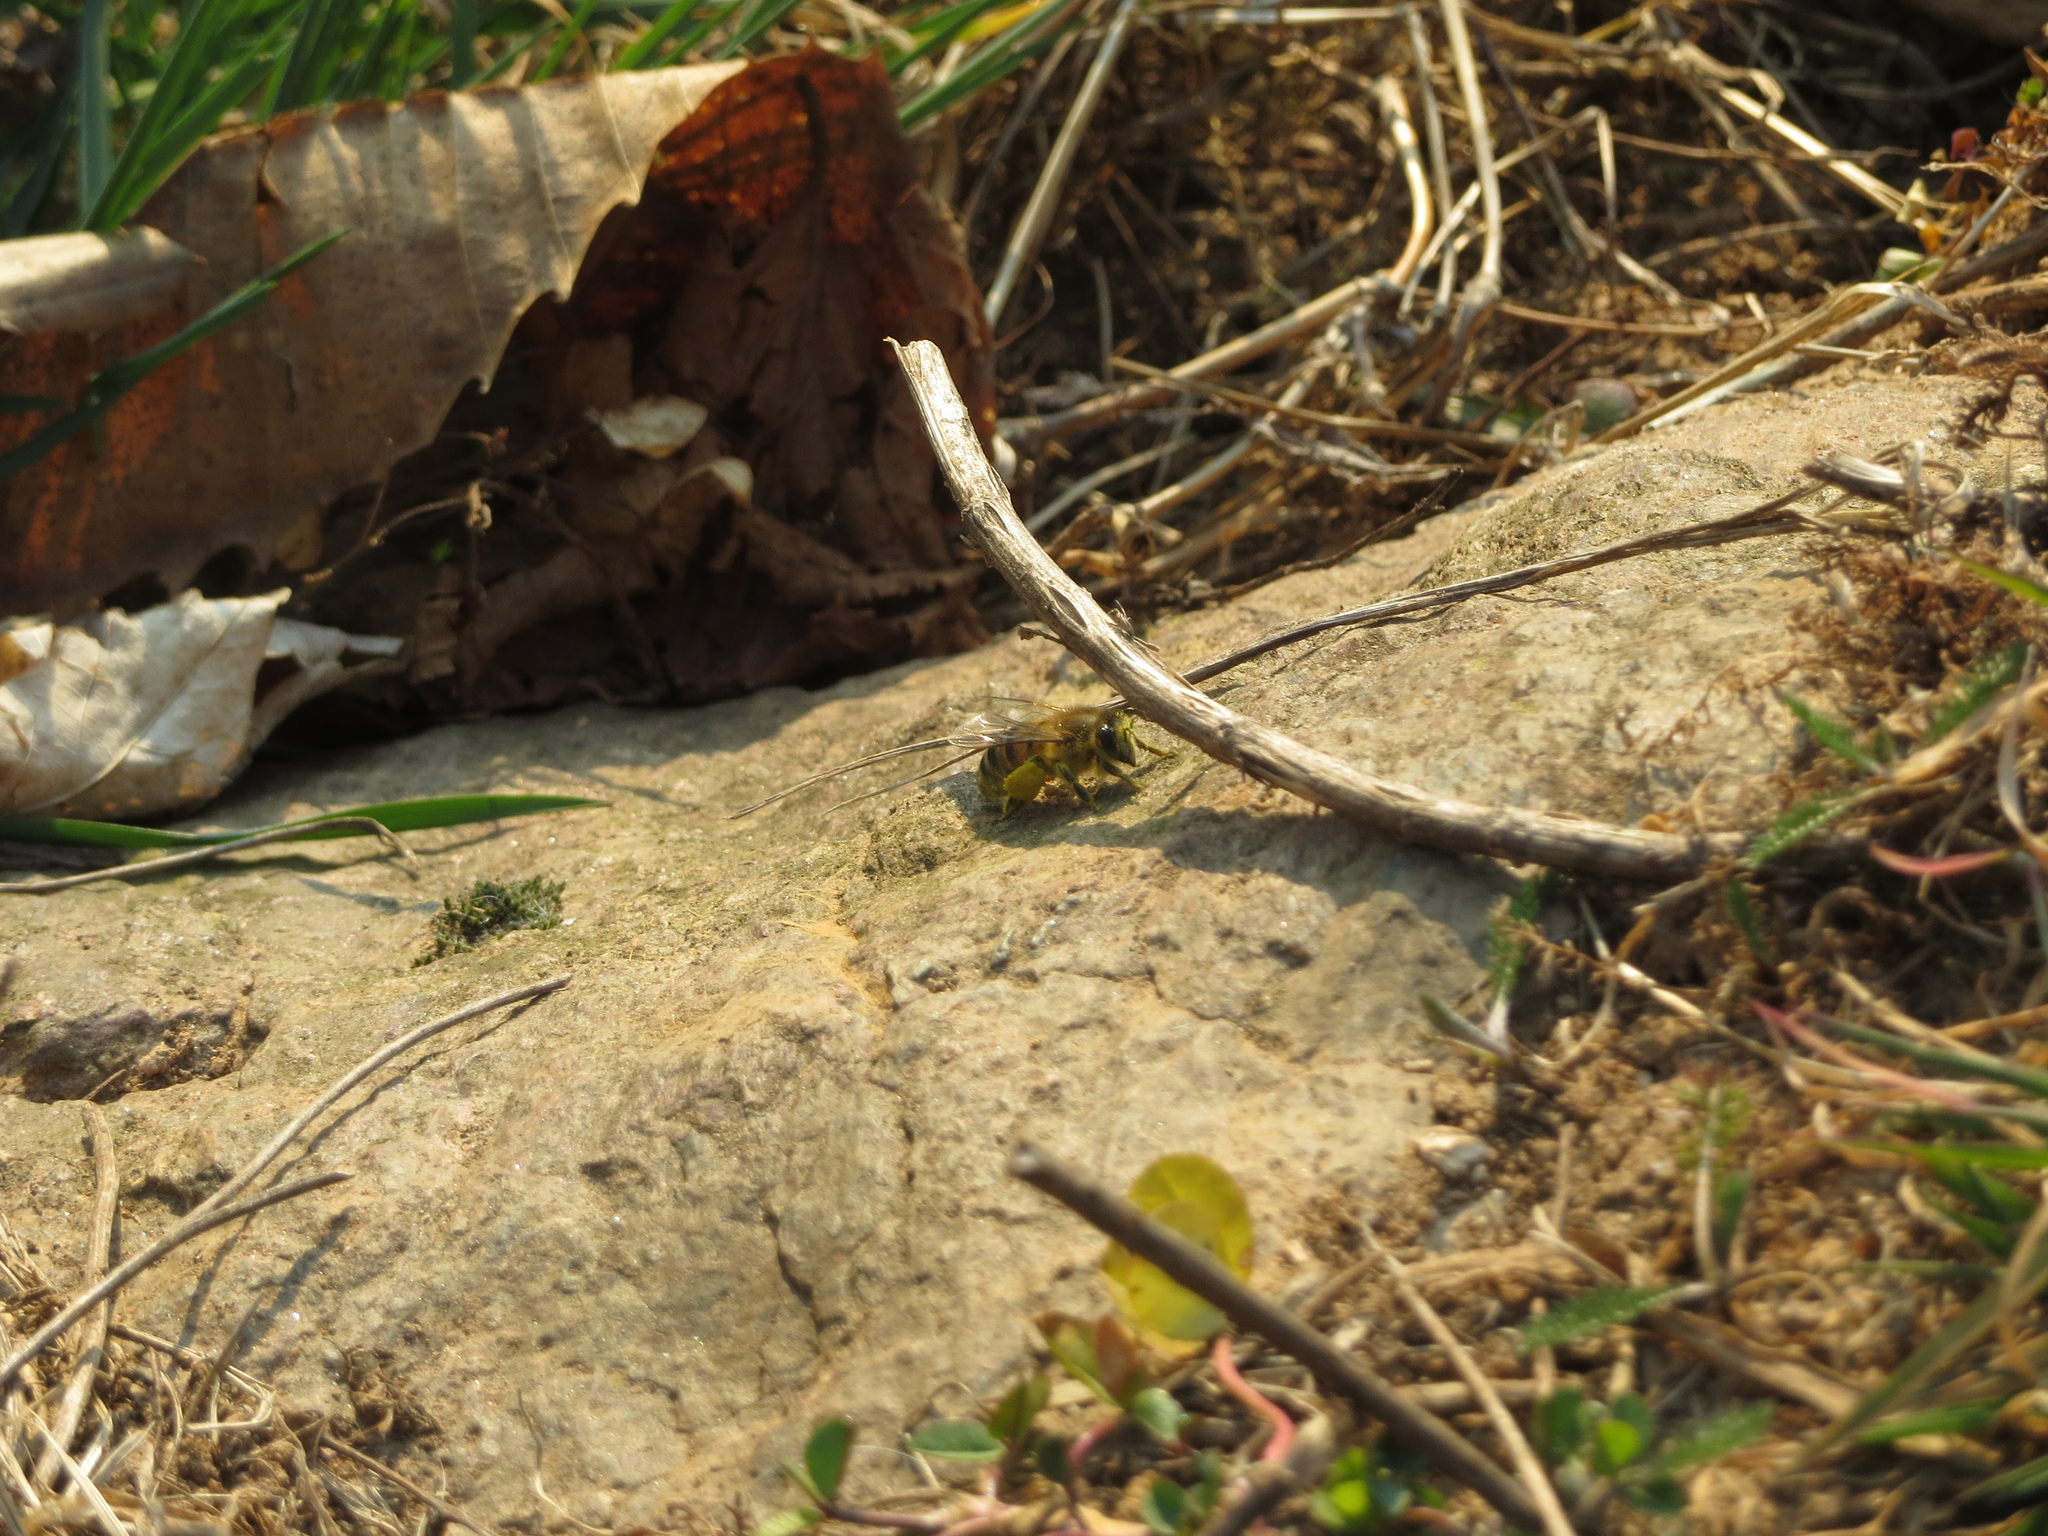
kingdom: Animalia
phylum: Arthropoda
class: Insecta
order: Hymenoptera
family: Apidae
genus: Apis
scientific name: Apis mellifera
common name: Honey bee
